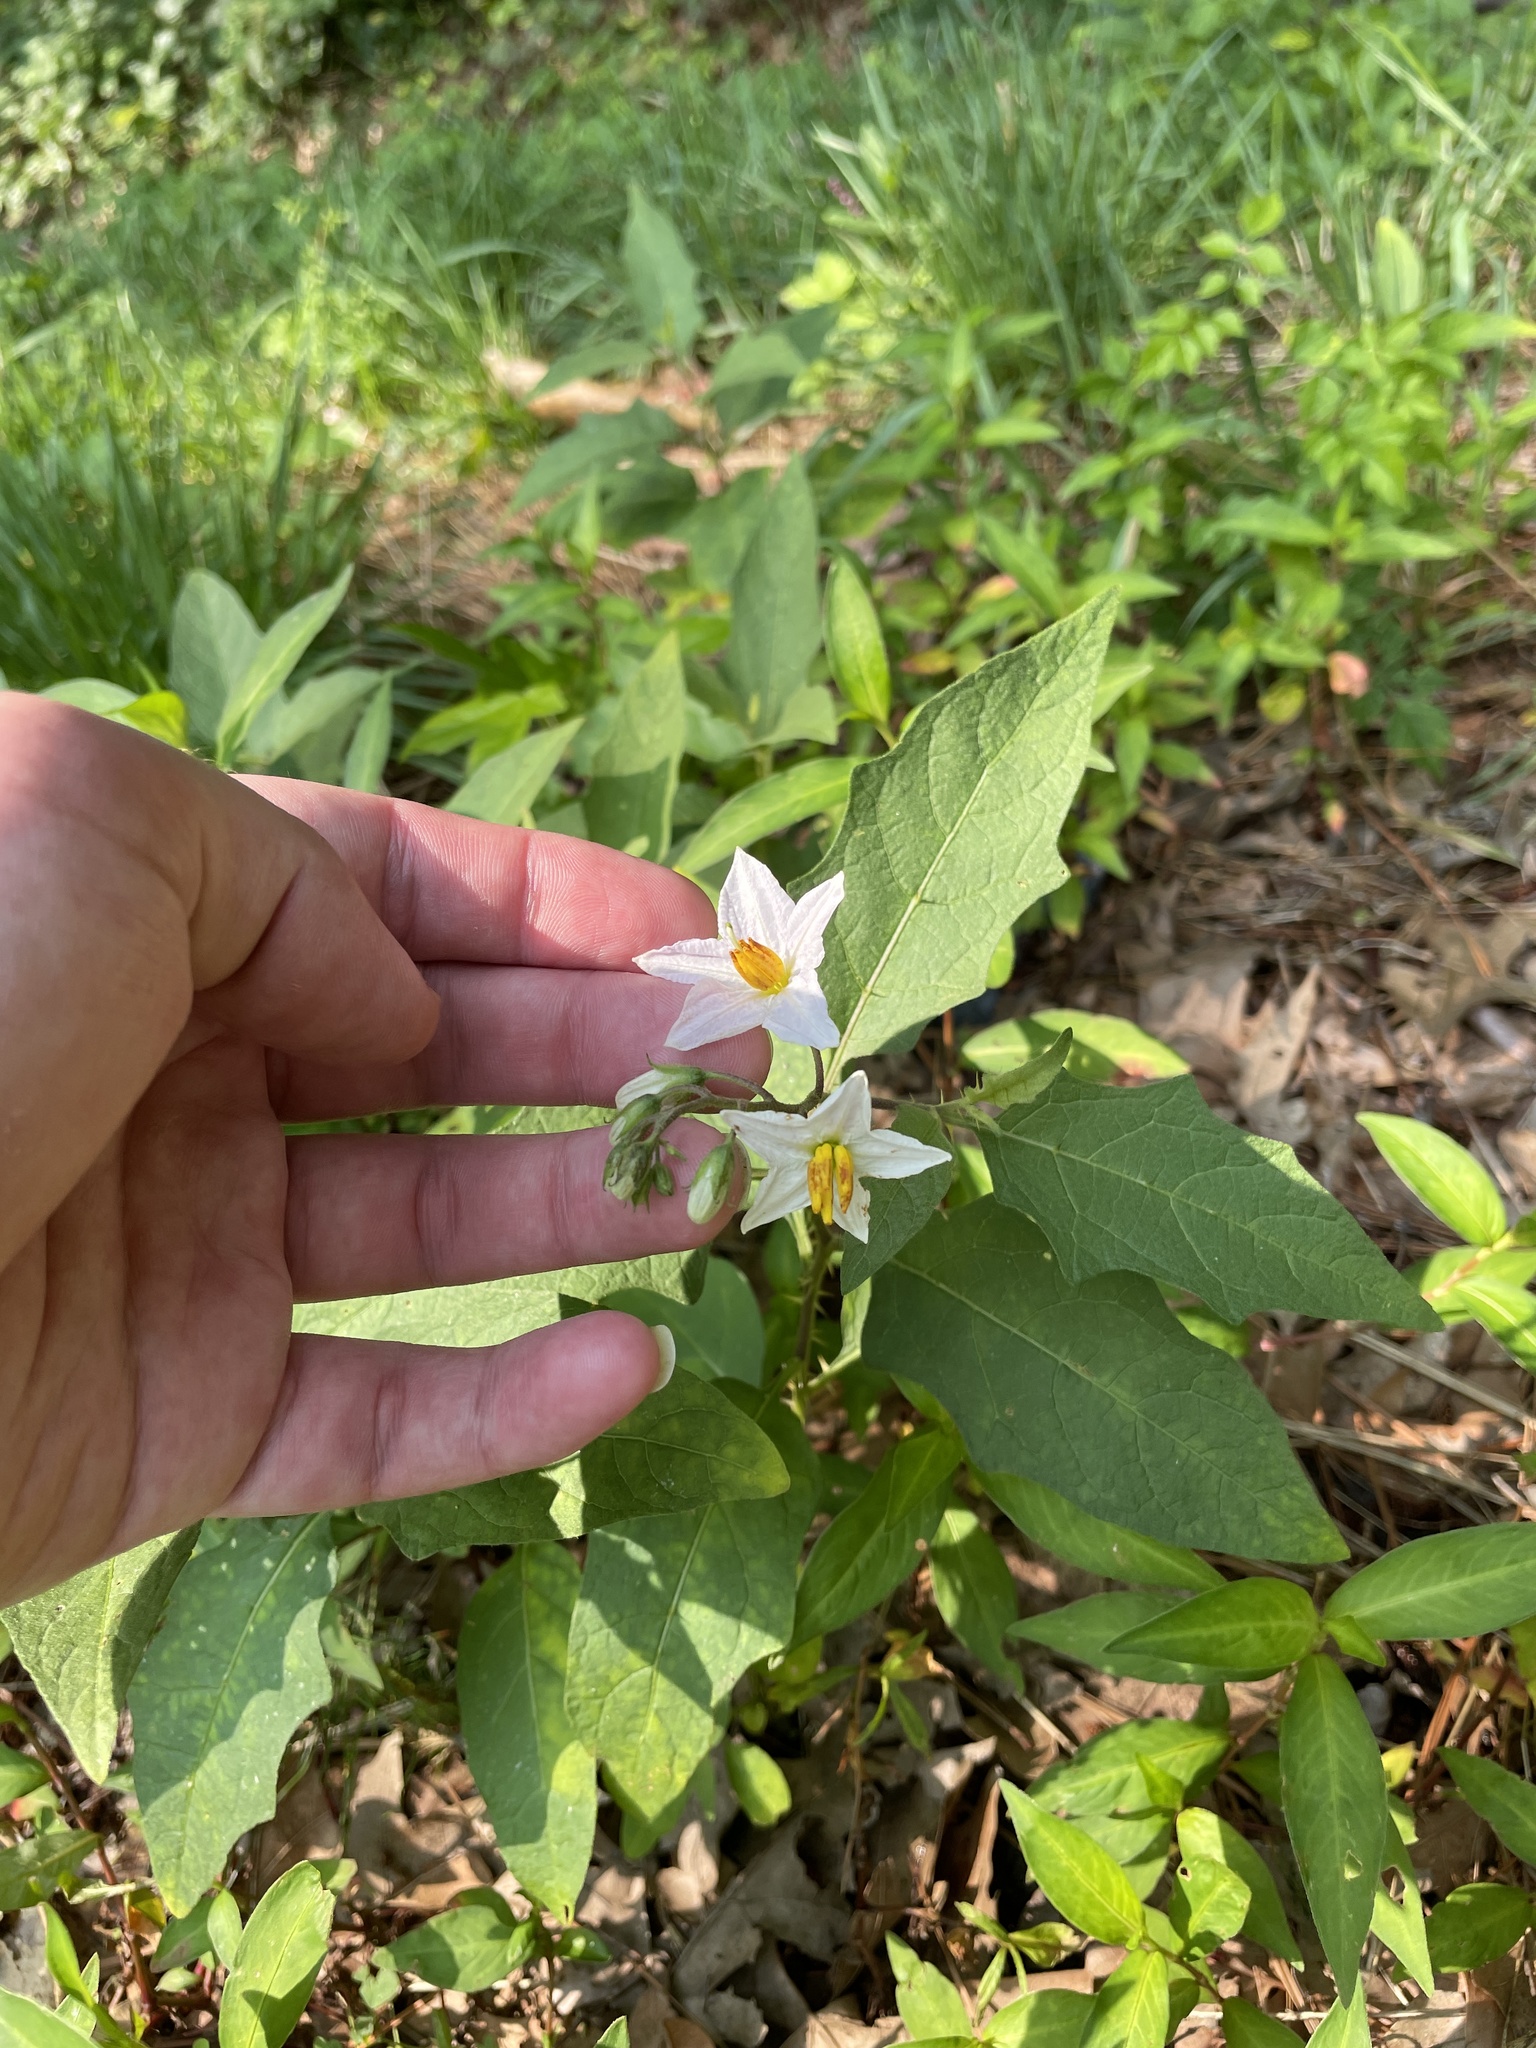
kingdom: Plantae
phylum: Tracheophyta
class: Magnoliopsida
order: Solanales
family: Solanaceae
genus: Solanum
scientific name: Solanum carolinense
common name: Horse-nettle
